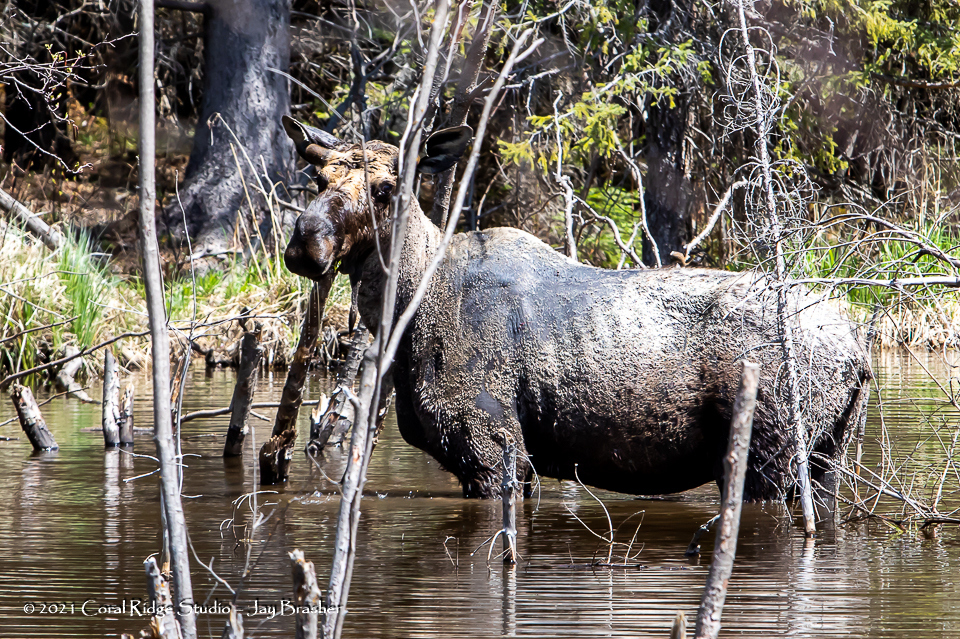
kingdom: Animalia
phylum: Chordata
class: Mammalia
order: Artiodactyla
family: Cervidae
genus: Alces
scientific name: Alces alces
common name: Moose
